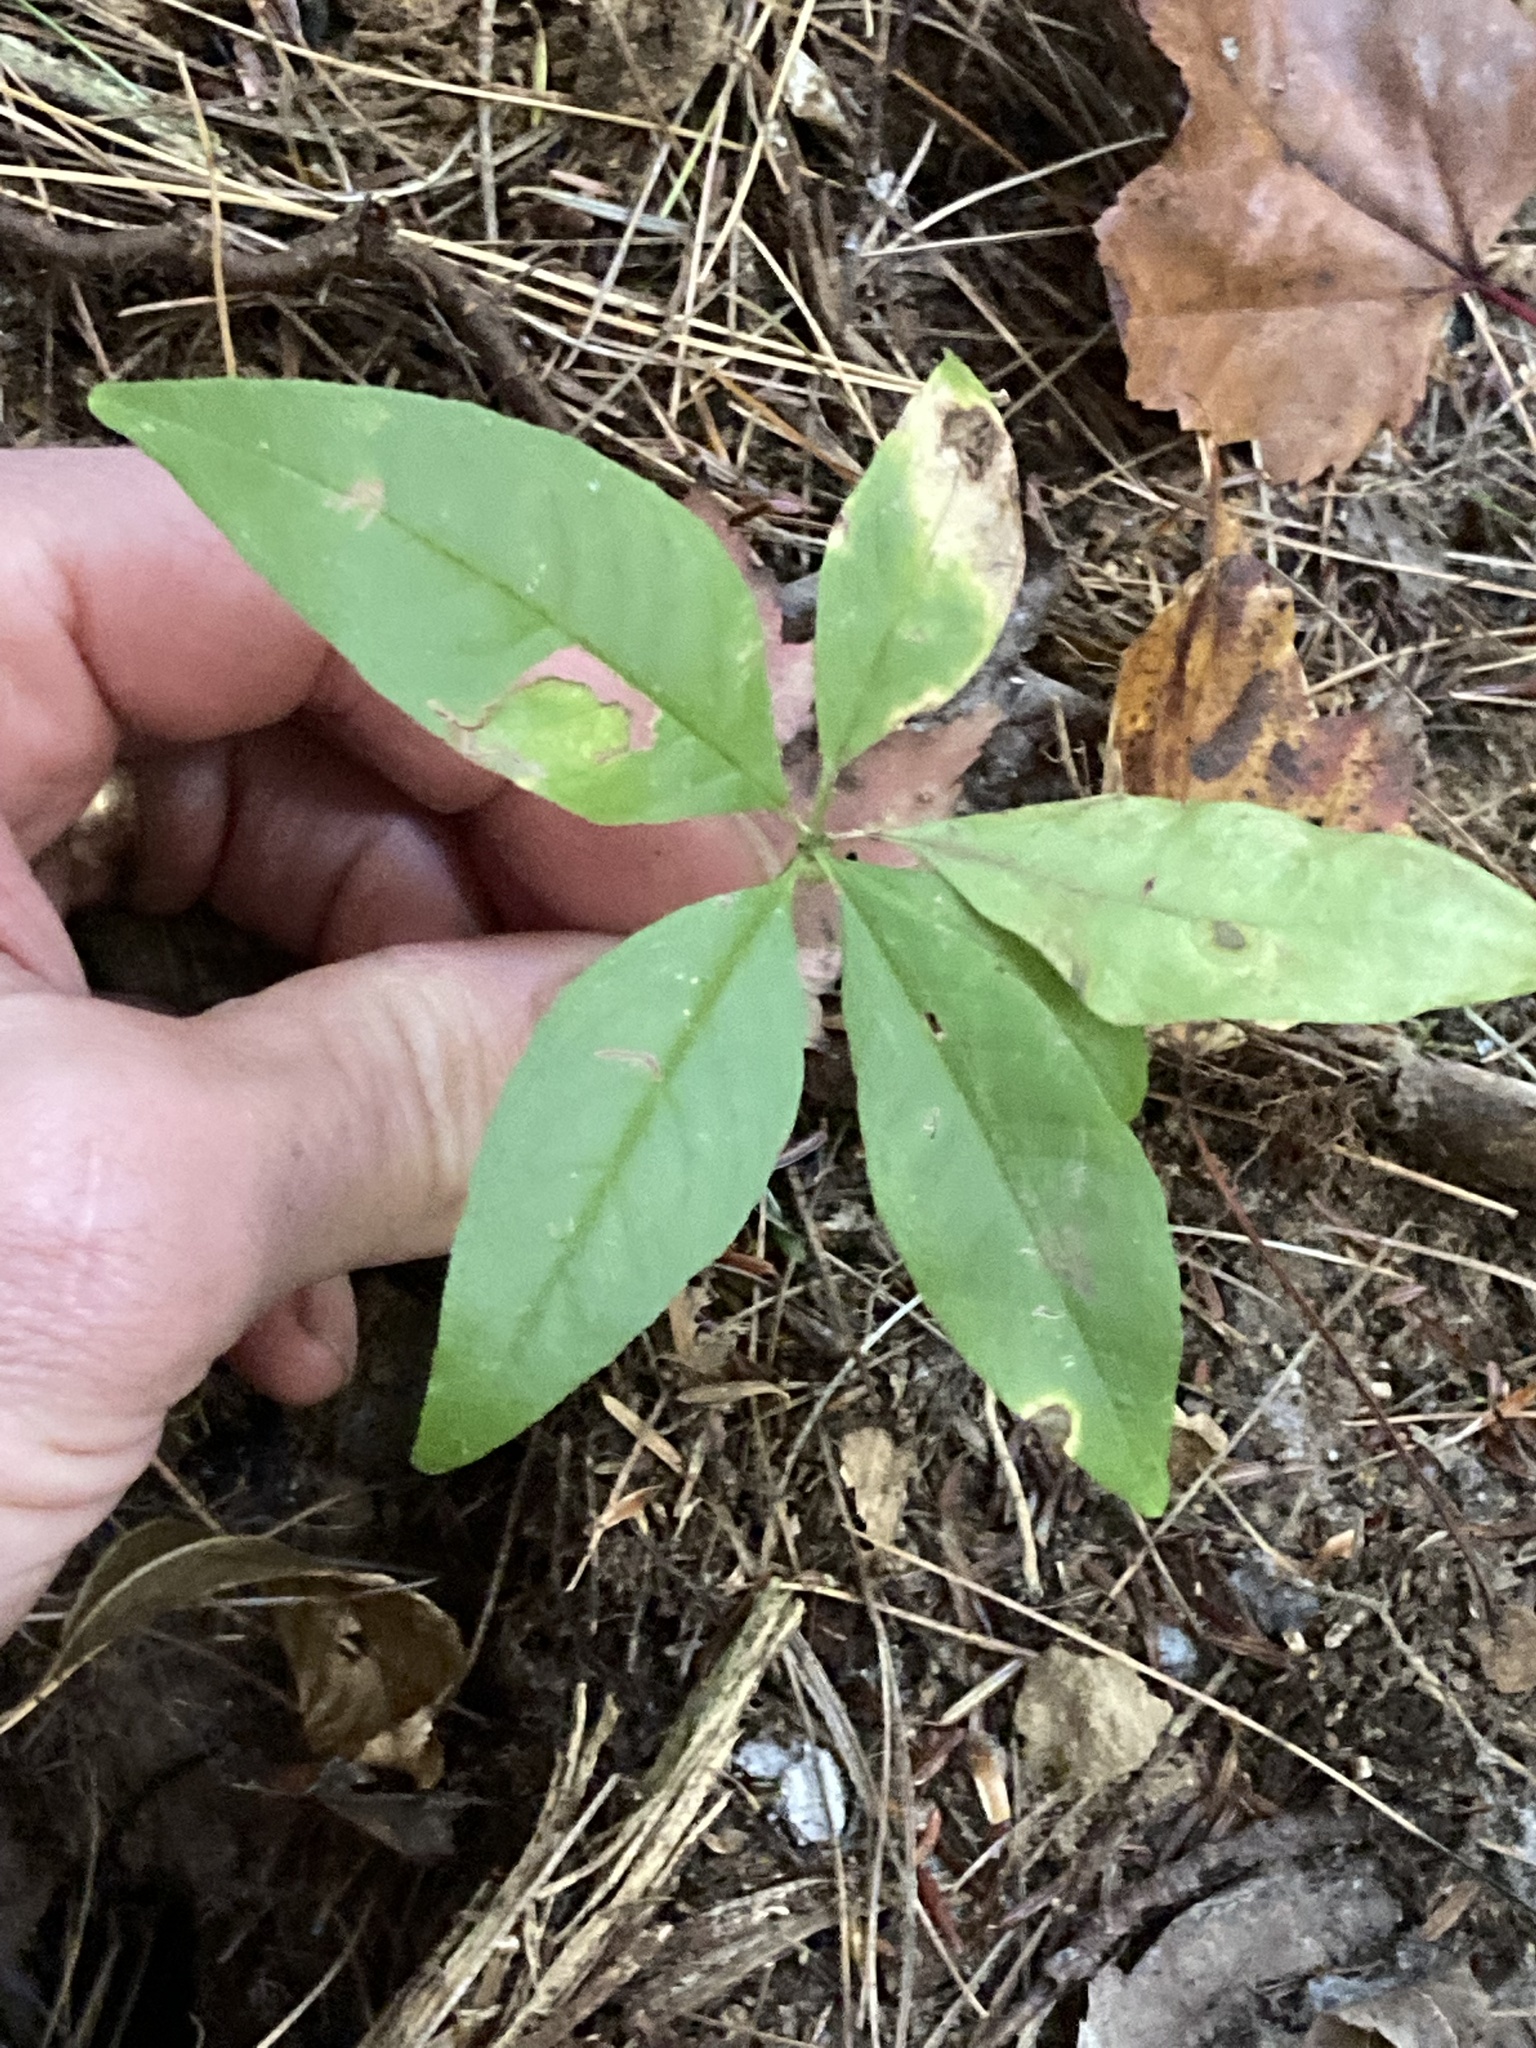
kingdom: Plantae
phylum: Tracheophyta
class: Magnoliopsida
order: Ericales
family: Primulaceae
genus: Lysimachia
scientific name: Lysimachia borealis
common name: American starflower
